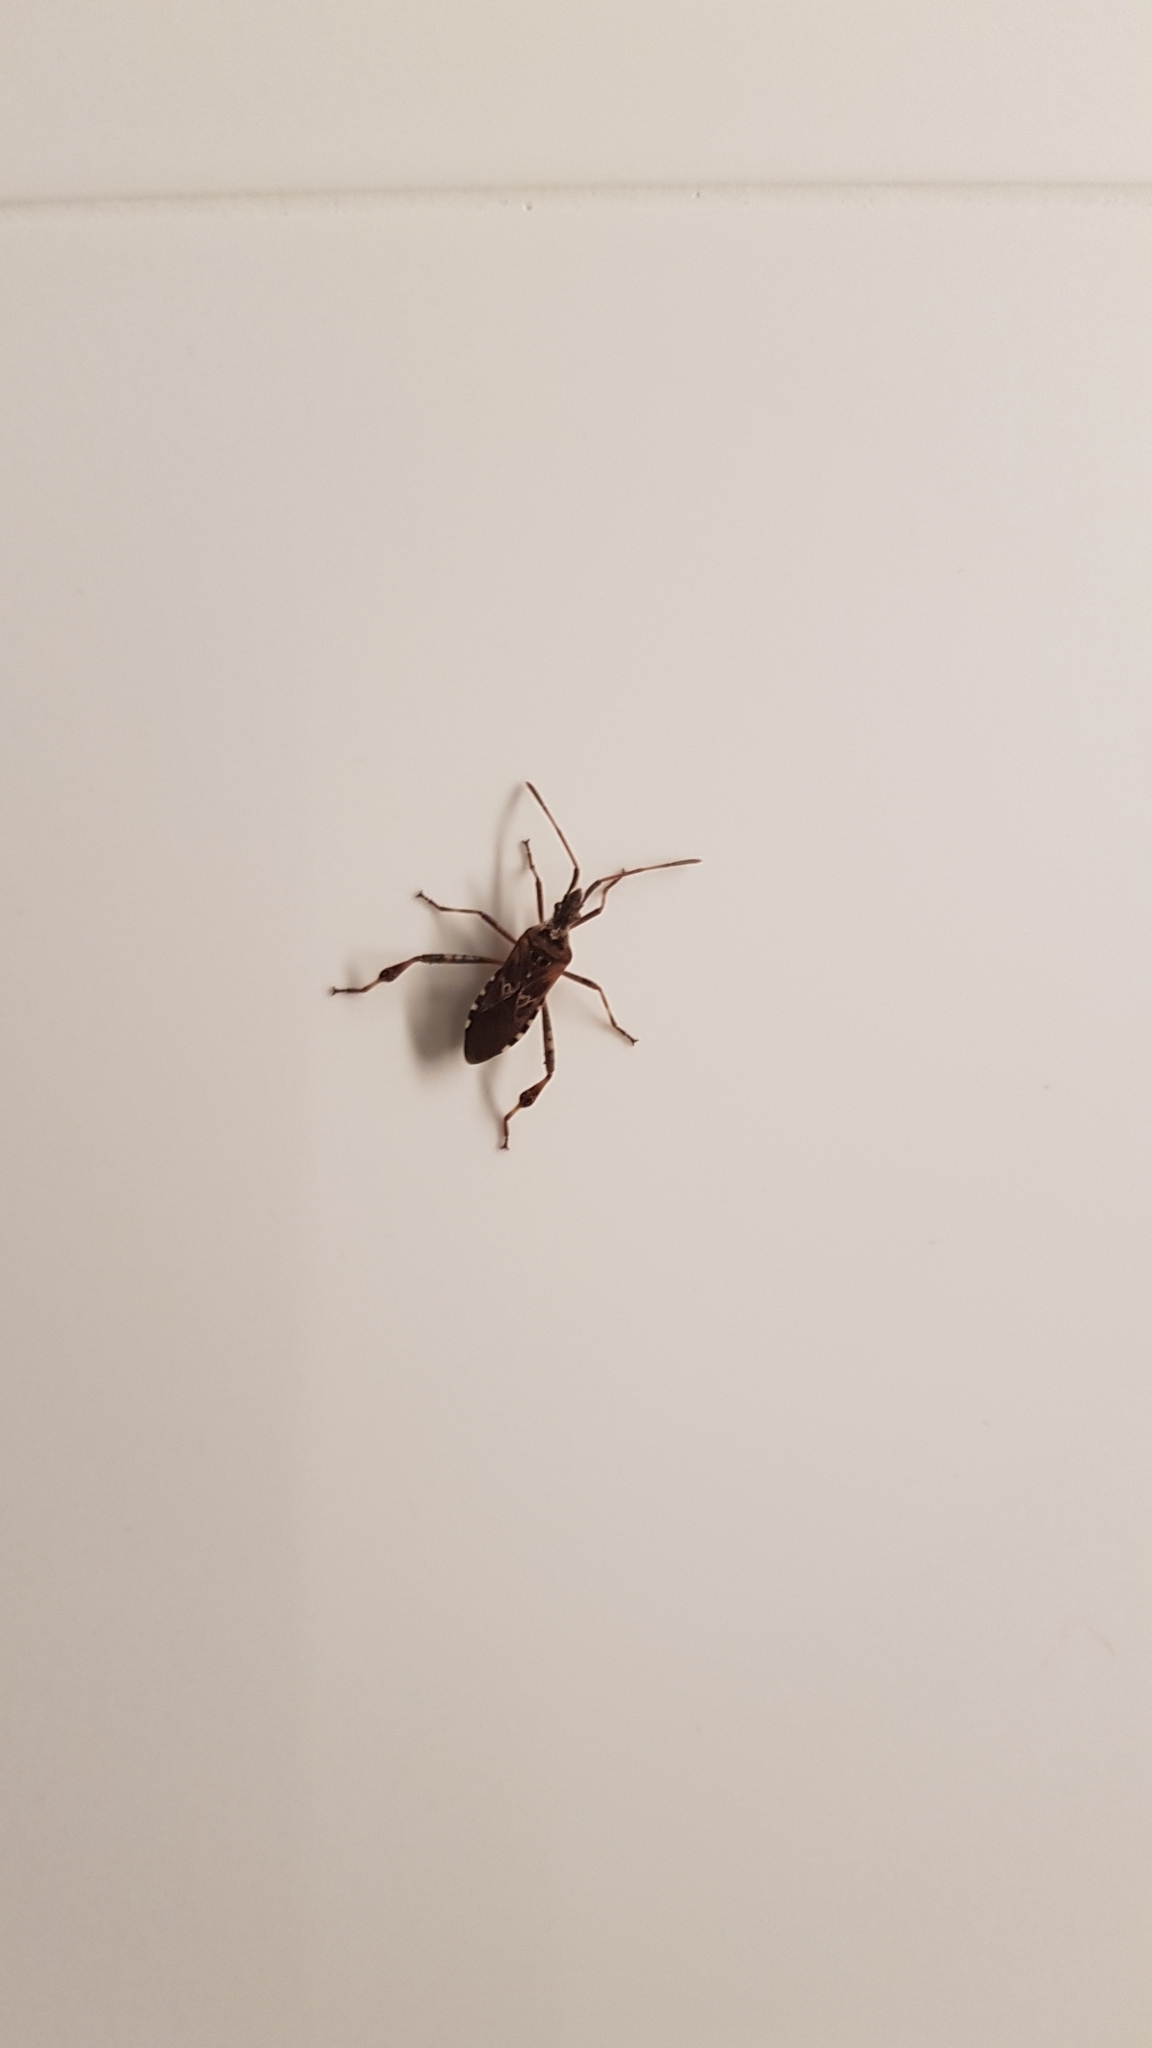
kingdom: Animalia
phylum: Arthropoda
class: Insecta
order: Hemiptera
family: Coreidae
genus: Leptoglossus
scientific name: Leptoglossus occidentalis
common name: Western conifer-seed bug
